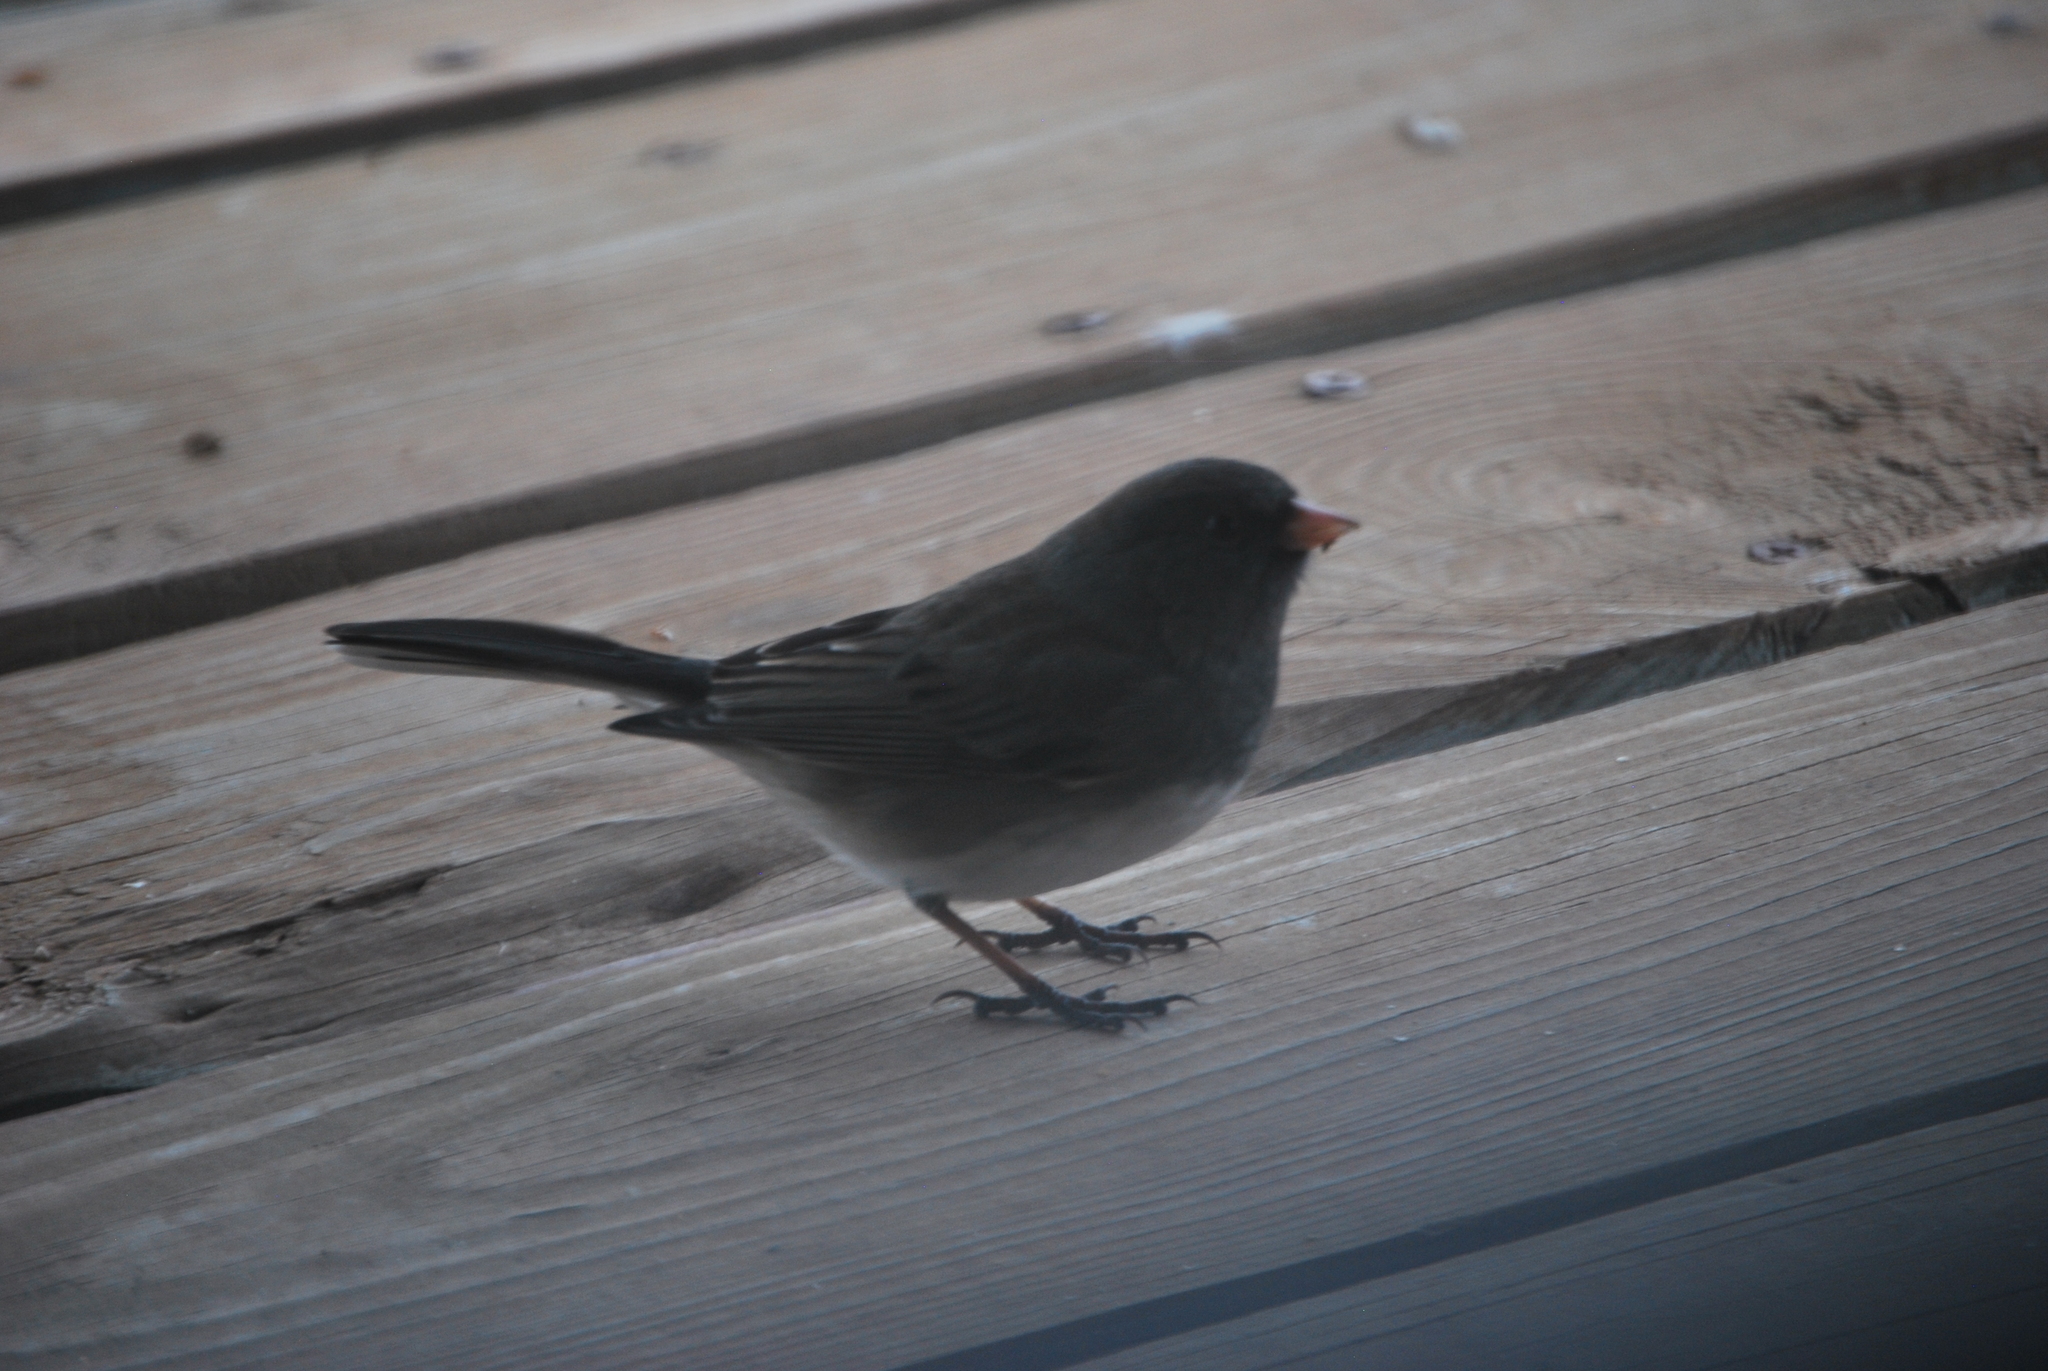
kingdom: Animalia
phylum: Chordata
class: Aves
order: Passeriformes
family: Passerellidae
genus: Junco
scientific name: Junco hyemalis
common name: Dark-eyed junco
